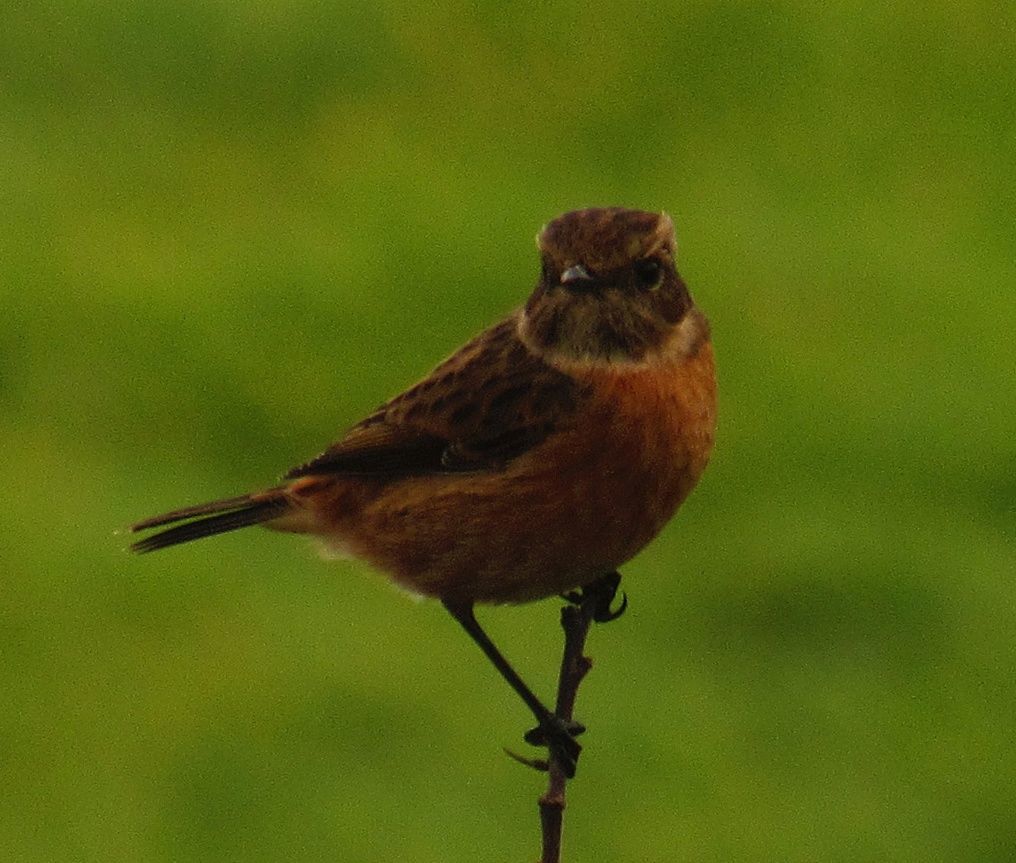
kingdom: Animalia
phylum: Chordata
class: Aves
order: Passeriformes
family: Muscicapidae
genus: Saxicola
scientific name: Saxicola rubicola
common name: European stonechat
